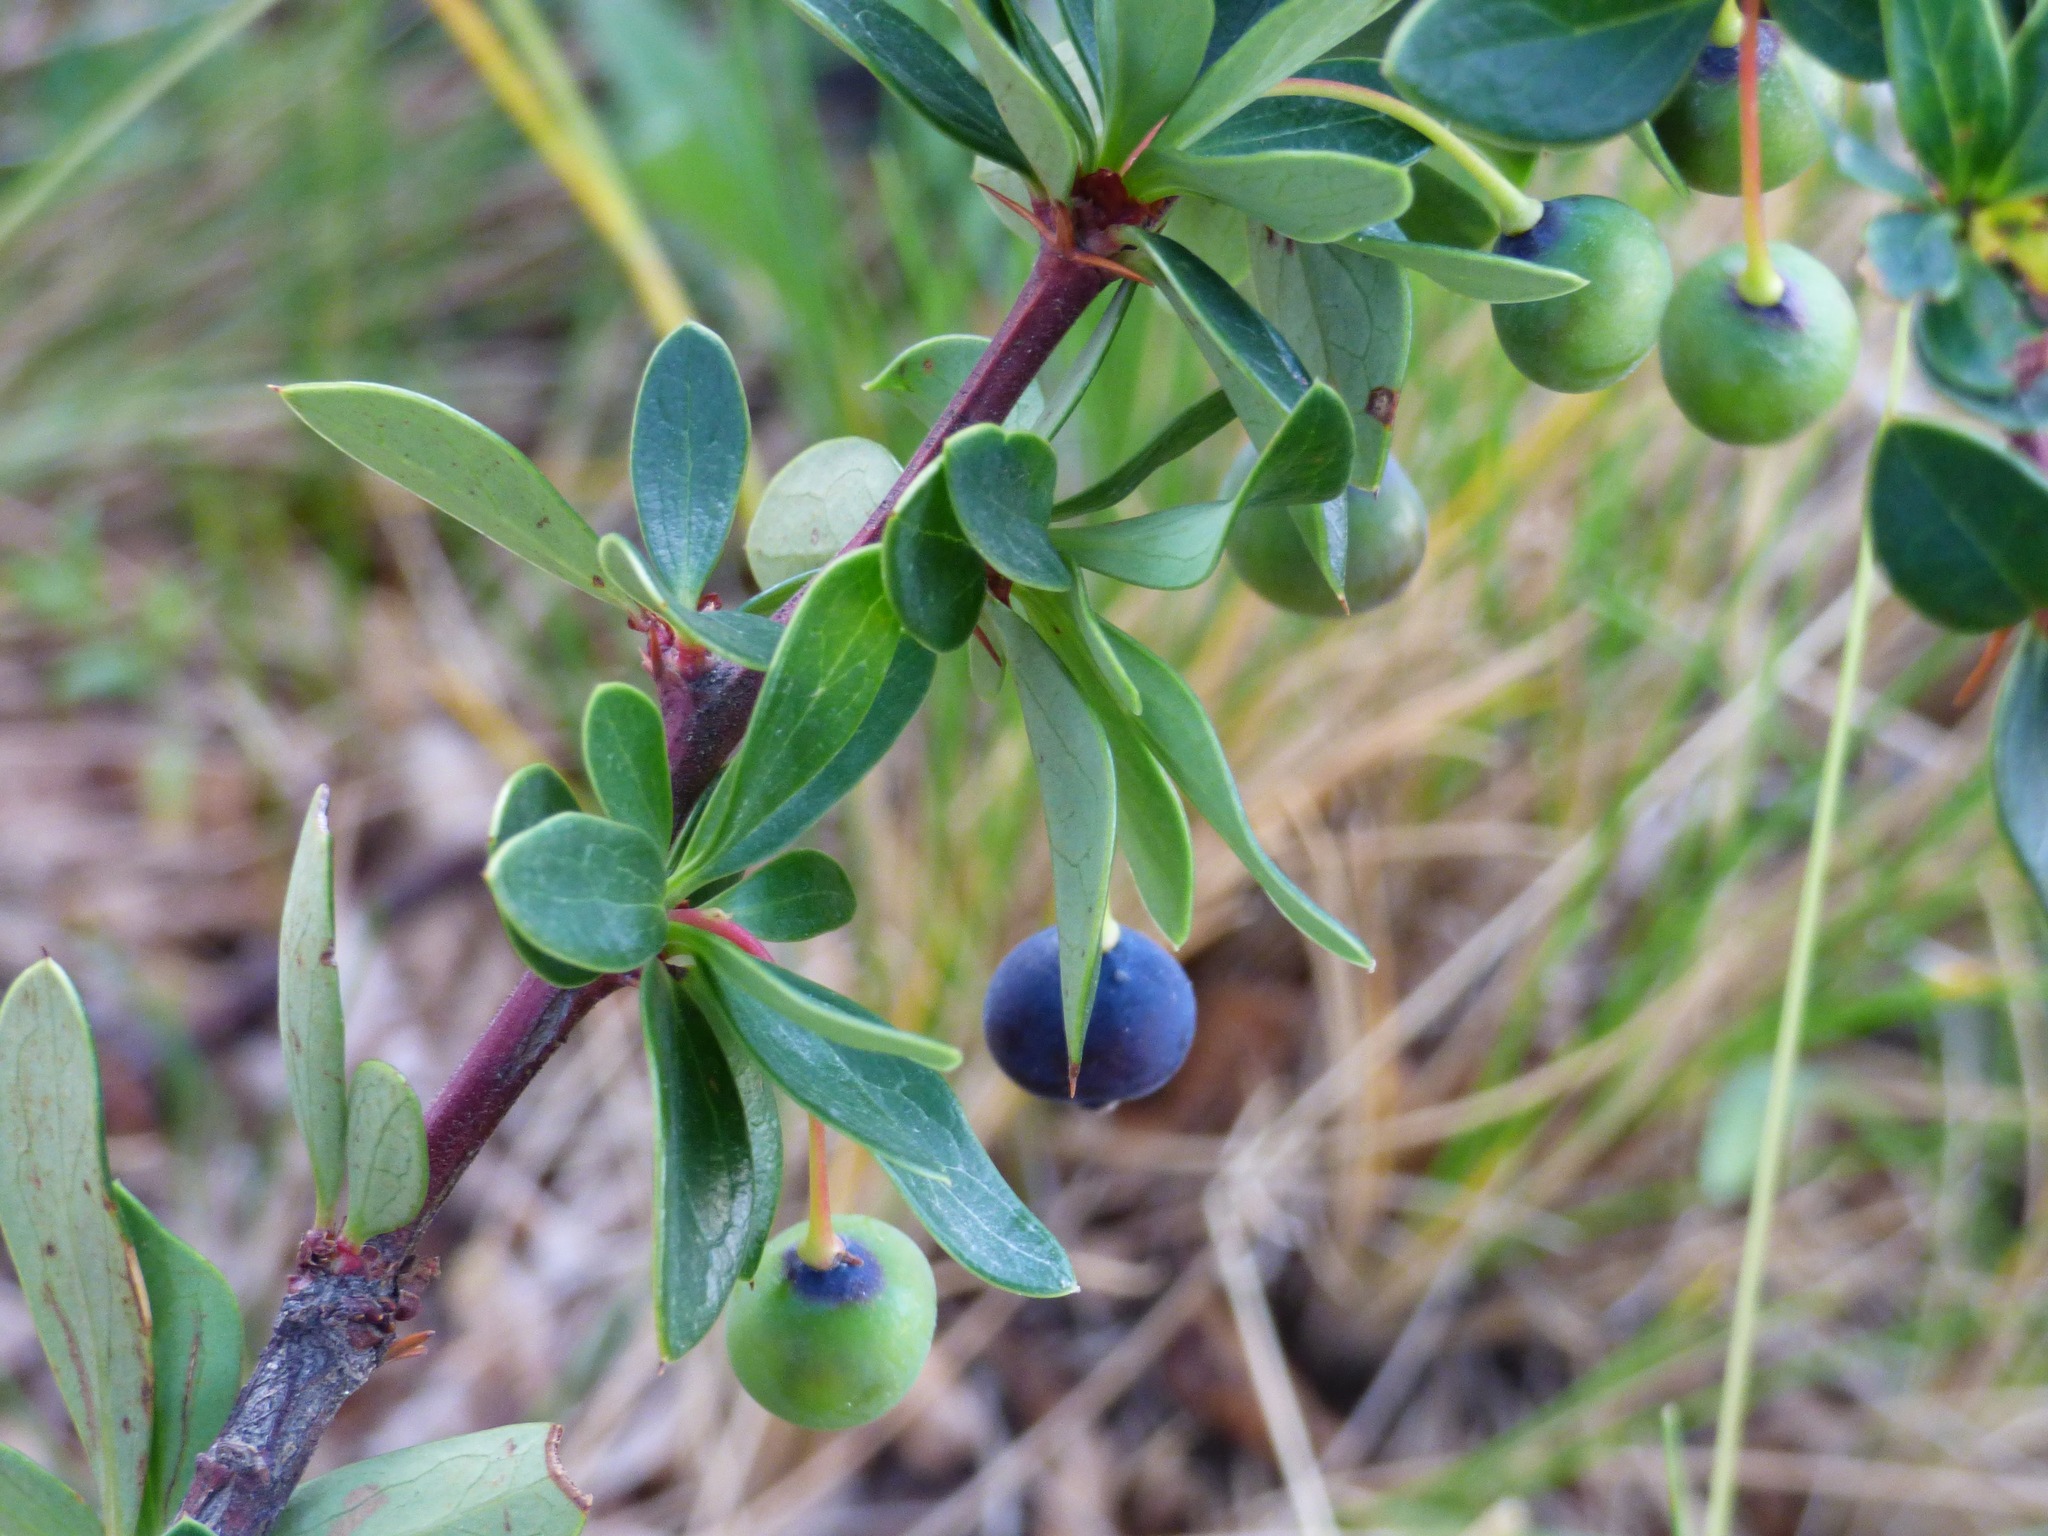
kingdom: Plantae
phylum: Tracheophyta
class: Magnoliopsida
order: Ranunculales
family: Berberidaceae
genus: Berberis
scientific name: Berberis microphylla
